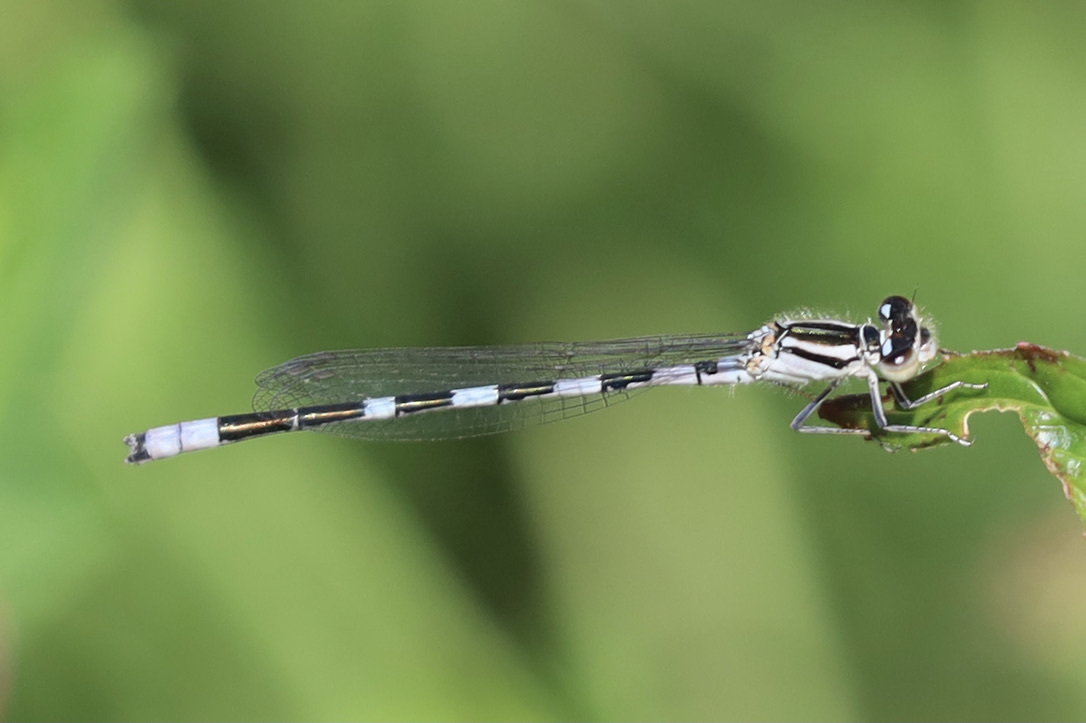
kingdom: Animalia
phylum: Arthropoda
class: Insecta
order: Odonata
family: Coenagrionidae
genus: Enallagma
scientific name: Enallagma carunculatum
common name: Tule bluet
